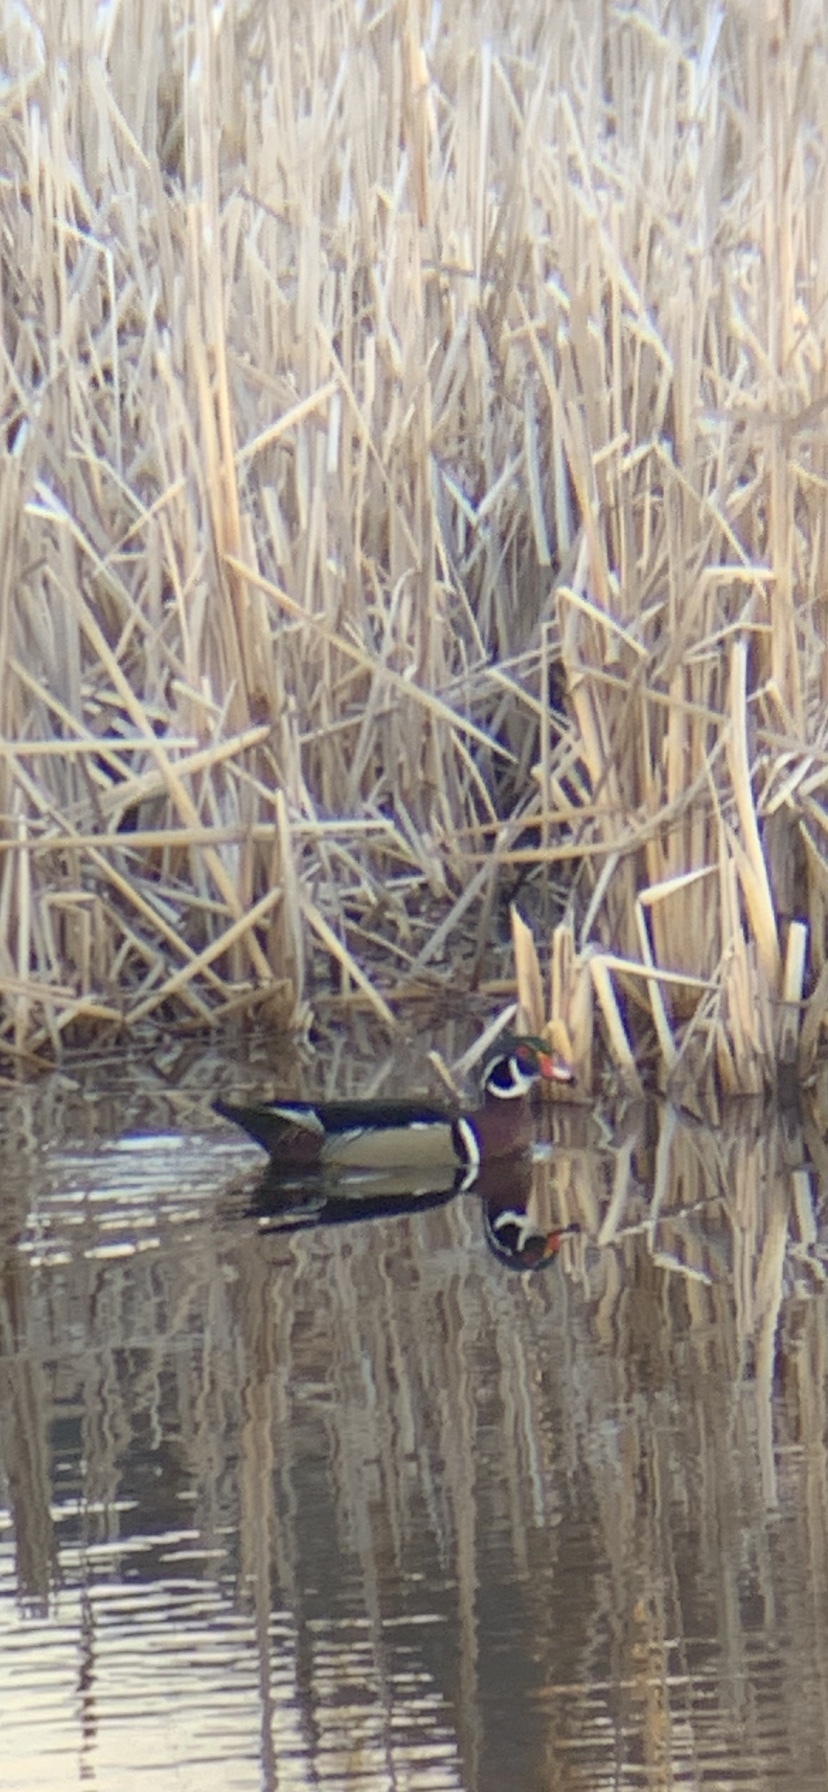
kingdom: Animalia
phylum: Chordata
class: Aves
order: Anseriformes
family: Anatidae
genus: Aix
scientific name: Aix sponsa
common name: Wood duck
